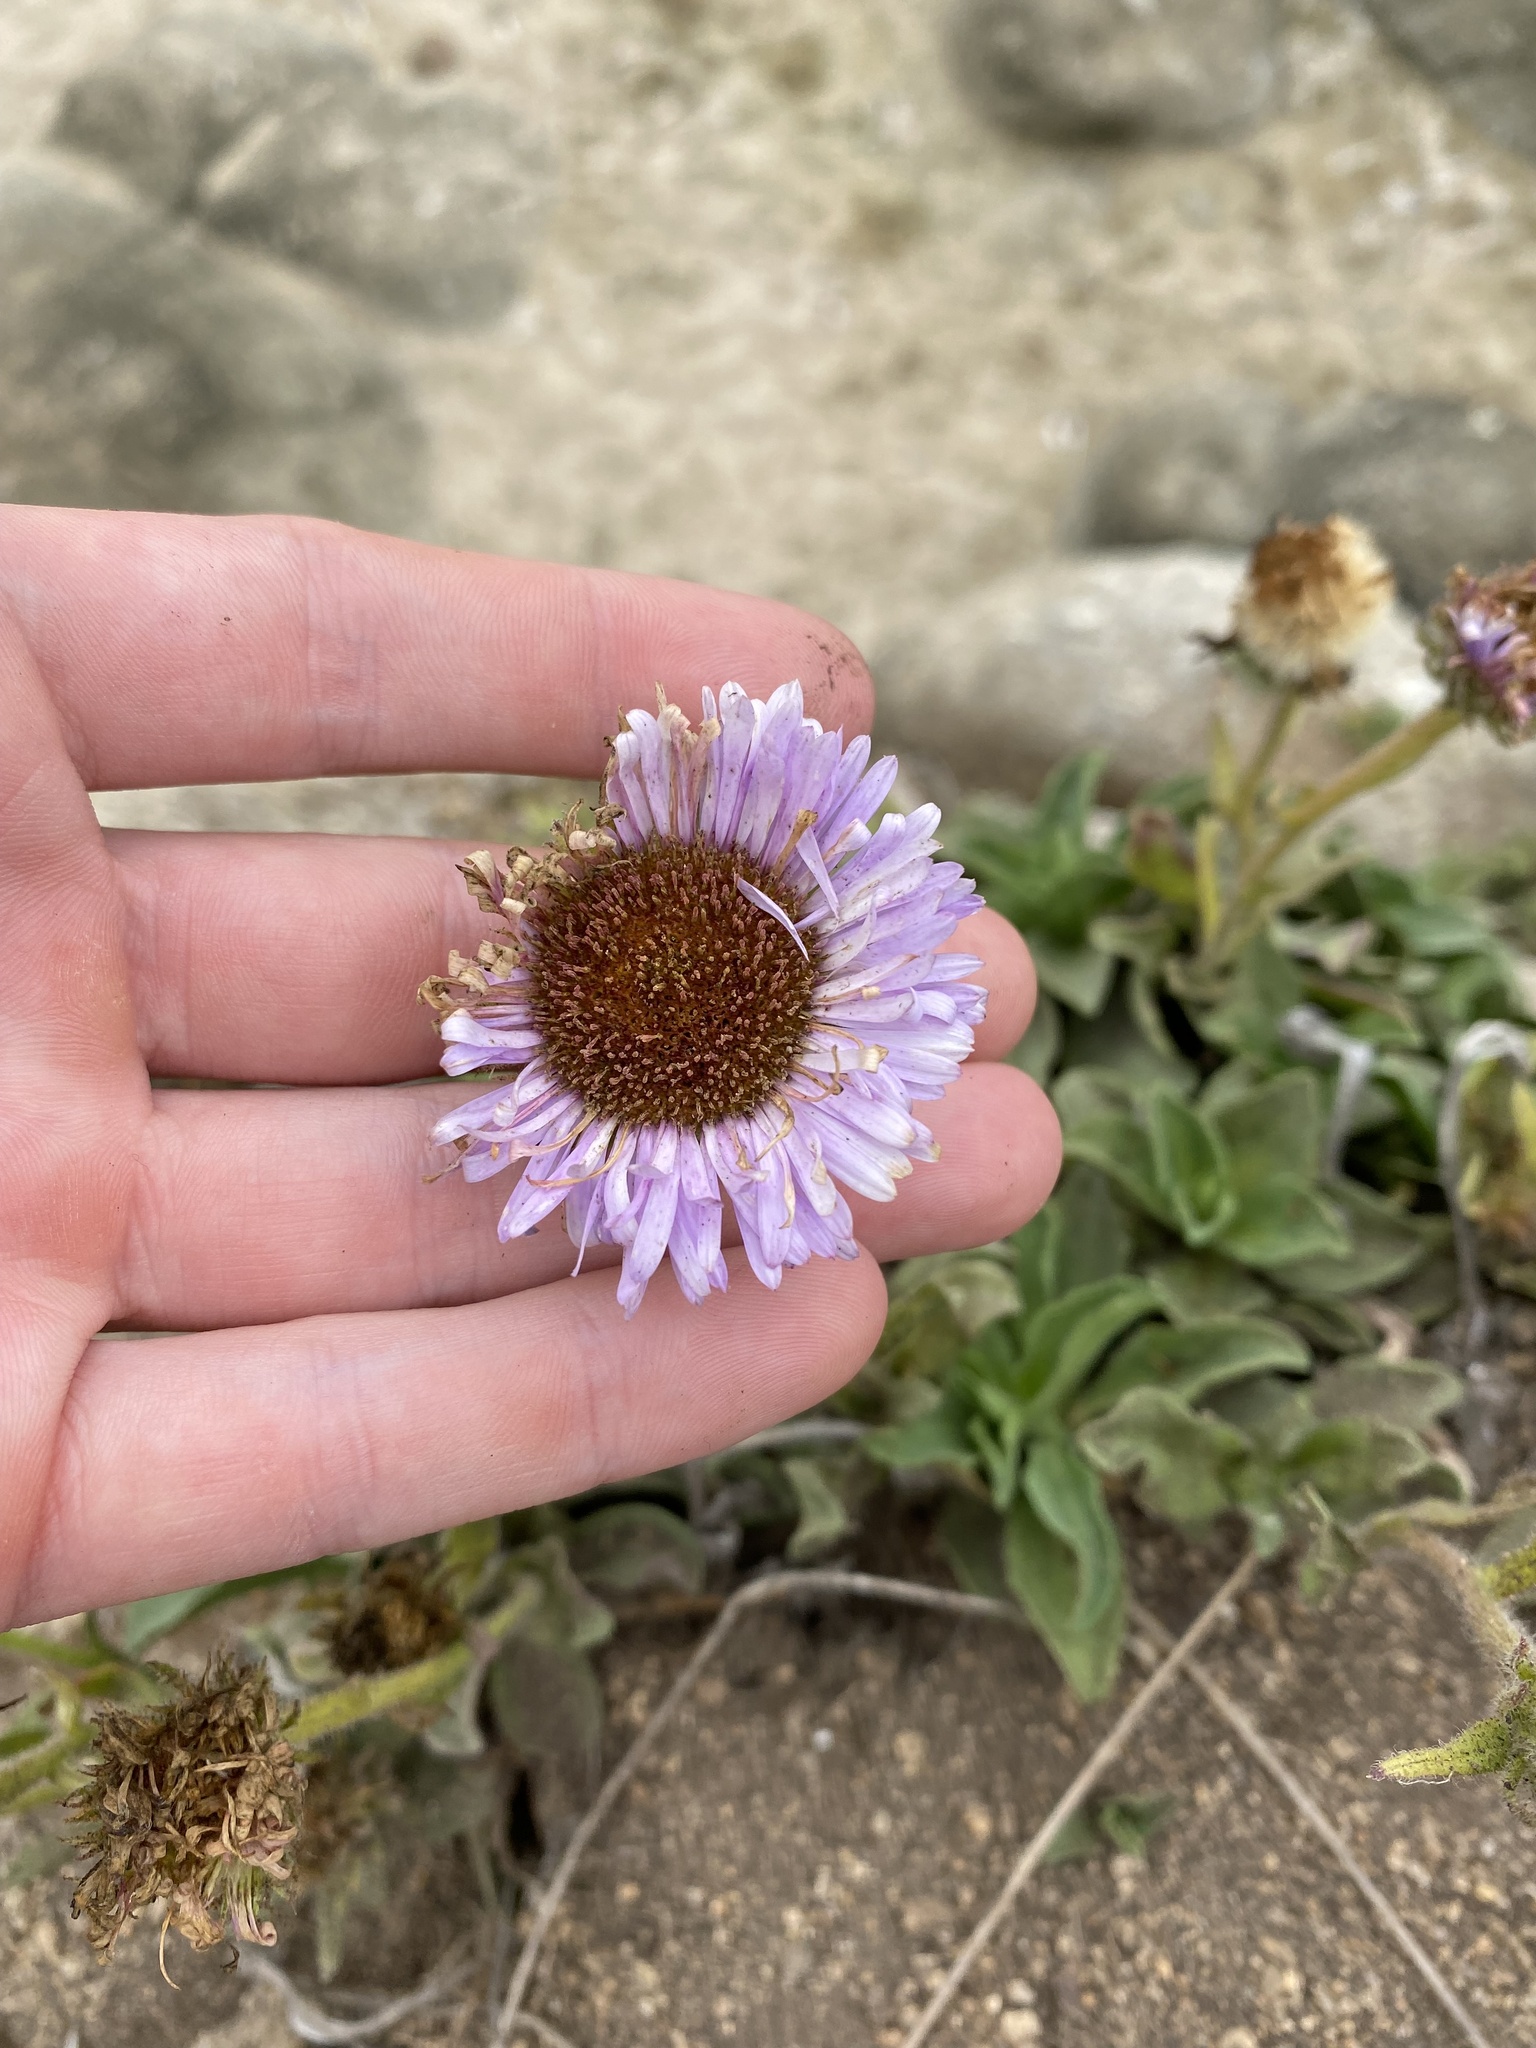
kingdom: Plantae
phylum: Tracheophyta
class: Magnoliopsida
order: Asterales
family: Asteraceae
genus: Erigeron
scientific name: Erigeron glaucus
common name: Seaside daisy
